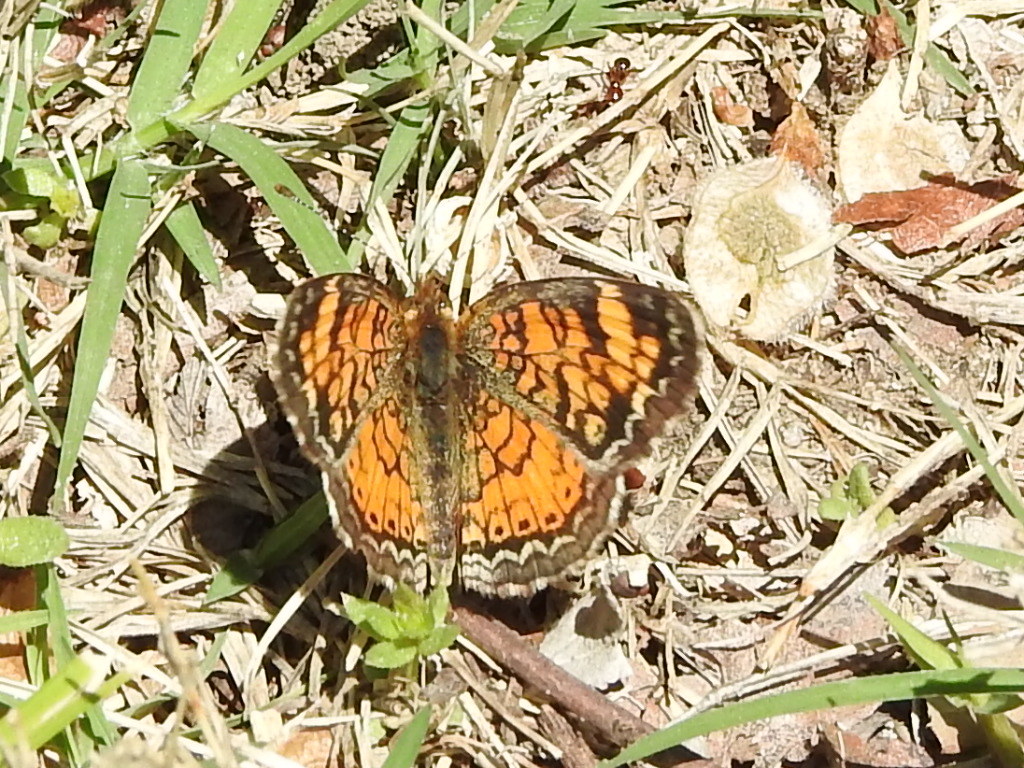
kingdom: Animalia
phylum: Arthropoda
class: Insecta
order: Lepidoptera
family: Nymphalidae
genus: Phyciodes
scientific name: Phyciodes tharos
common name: Pearl crescent
